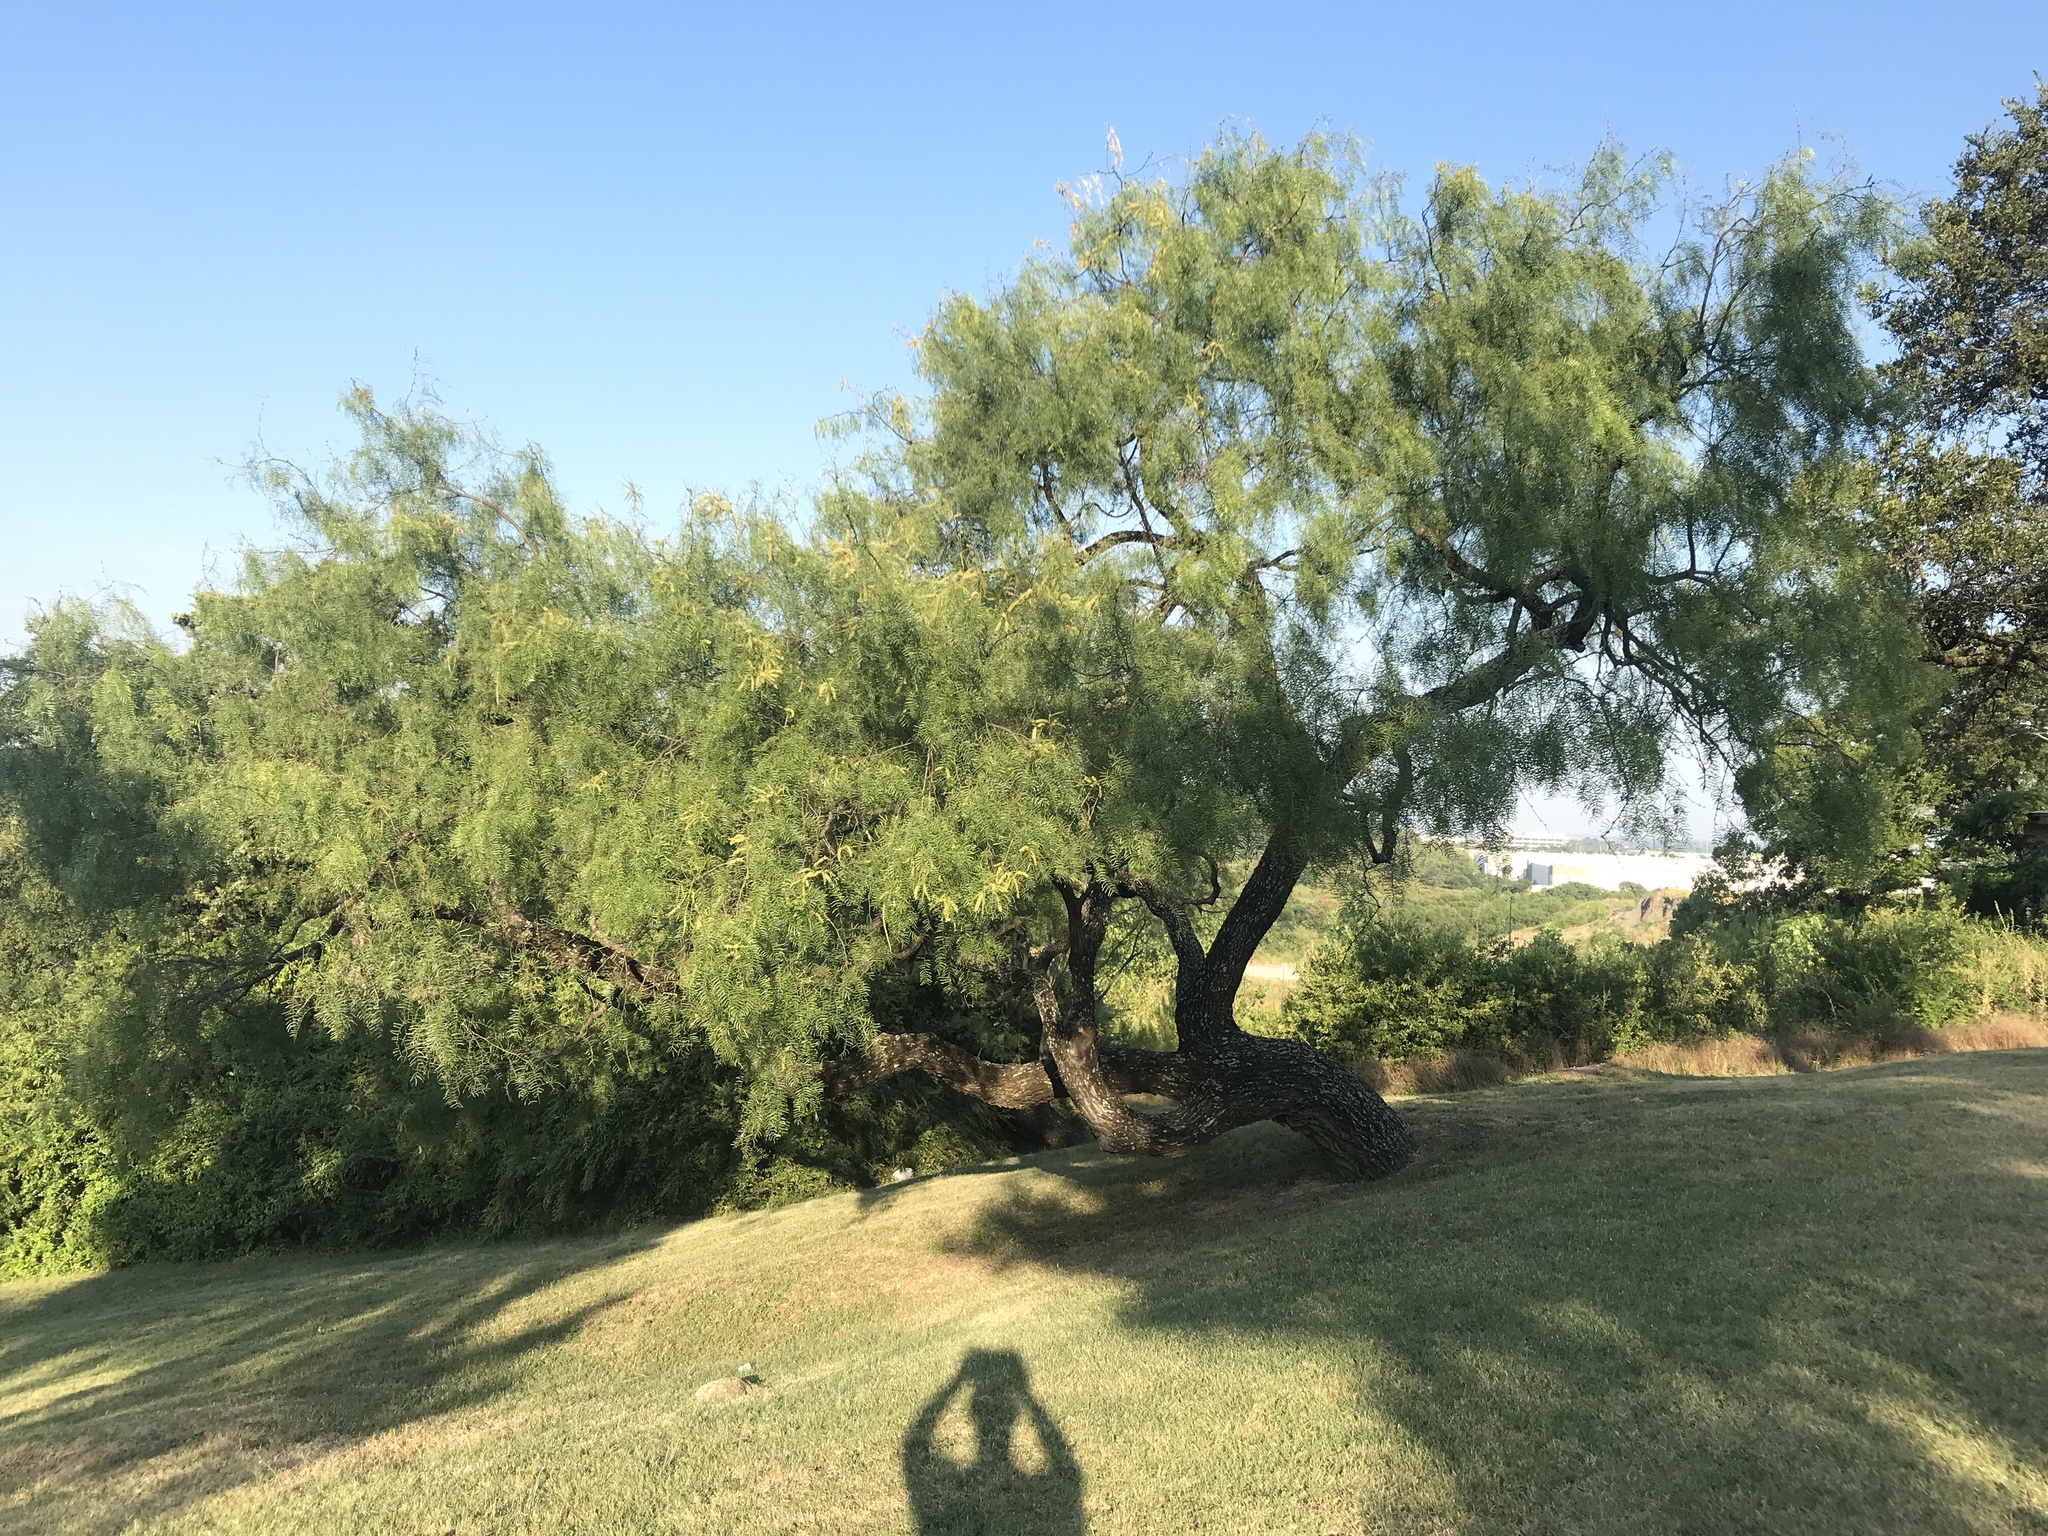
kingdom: Plantae
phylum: Tracheophyta
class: Magnoliopsida
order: Fabales
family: Fabaceae
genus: Prosopis
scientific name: Prosopis glandulosa
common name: Honey mesquite
